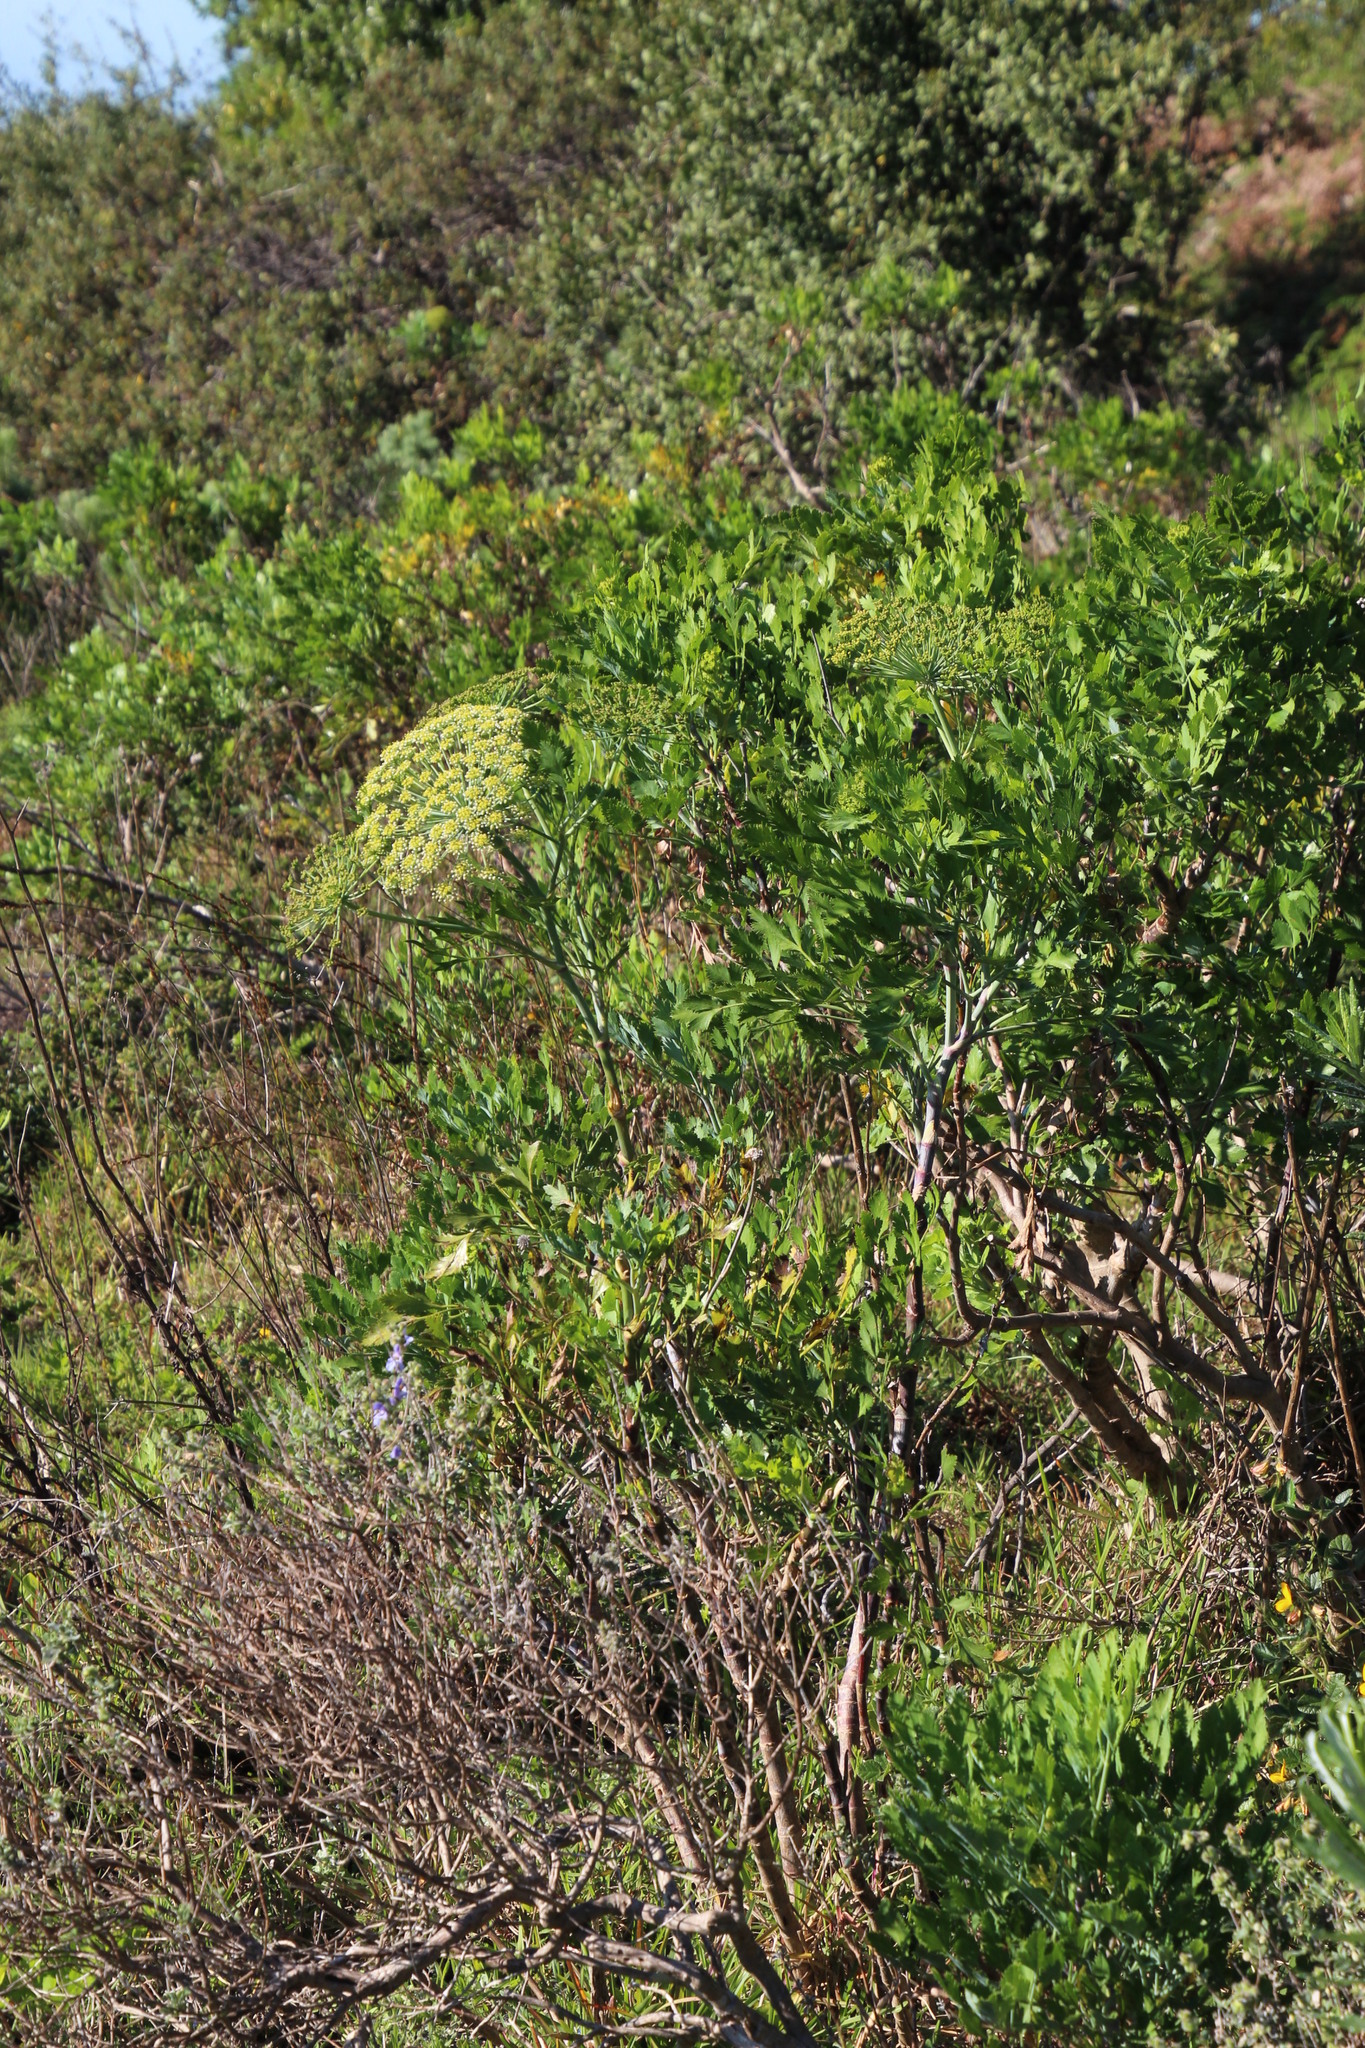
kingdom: Plantae
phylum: Tracheophyta
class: Magnoliopsida
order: Apiales
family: Apiaceae
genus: Notobubon
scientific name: Notobubon galbanum
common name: Blisterbush
